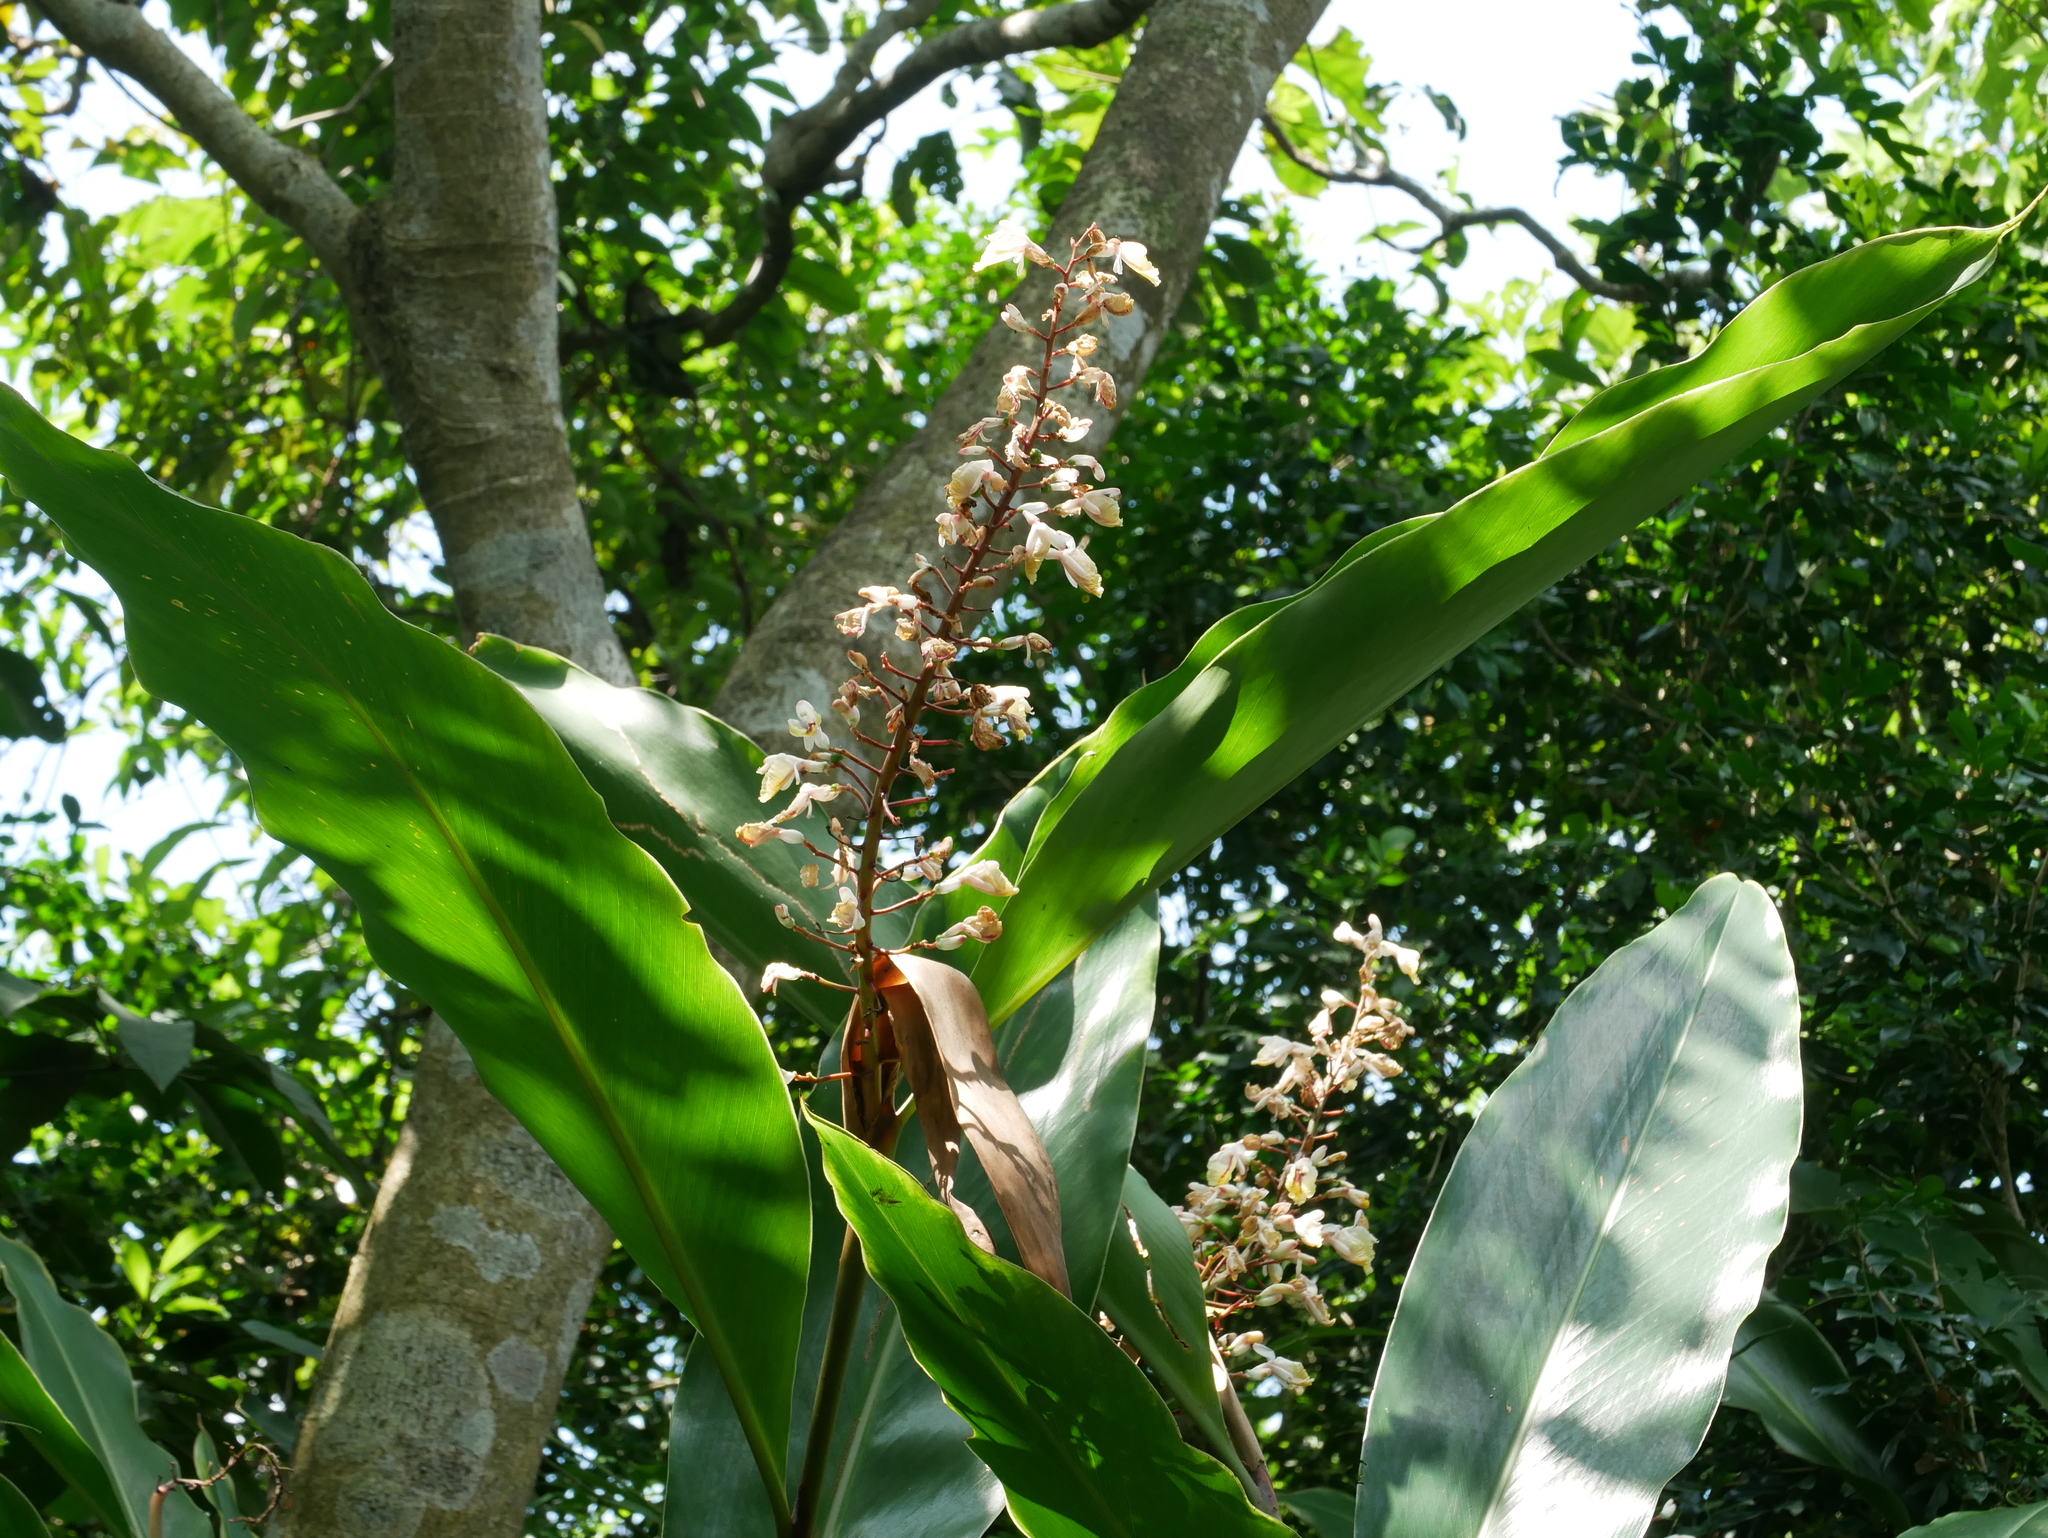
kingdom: Plantae
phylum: Tracheophyta
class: Liliopsida
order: Zingiberales
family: Zingiberaceae
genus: Alpinia
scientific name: Alpinia formosana
